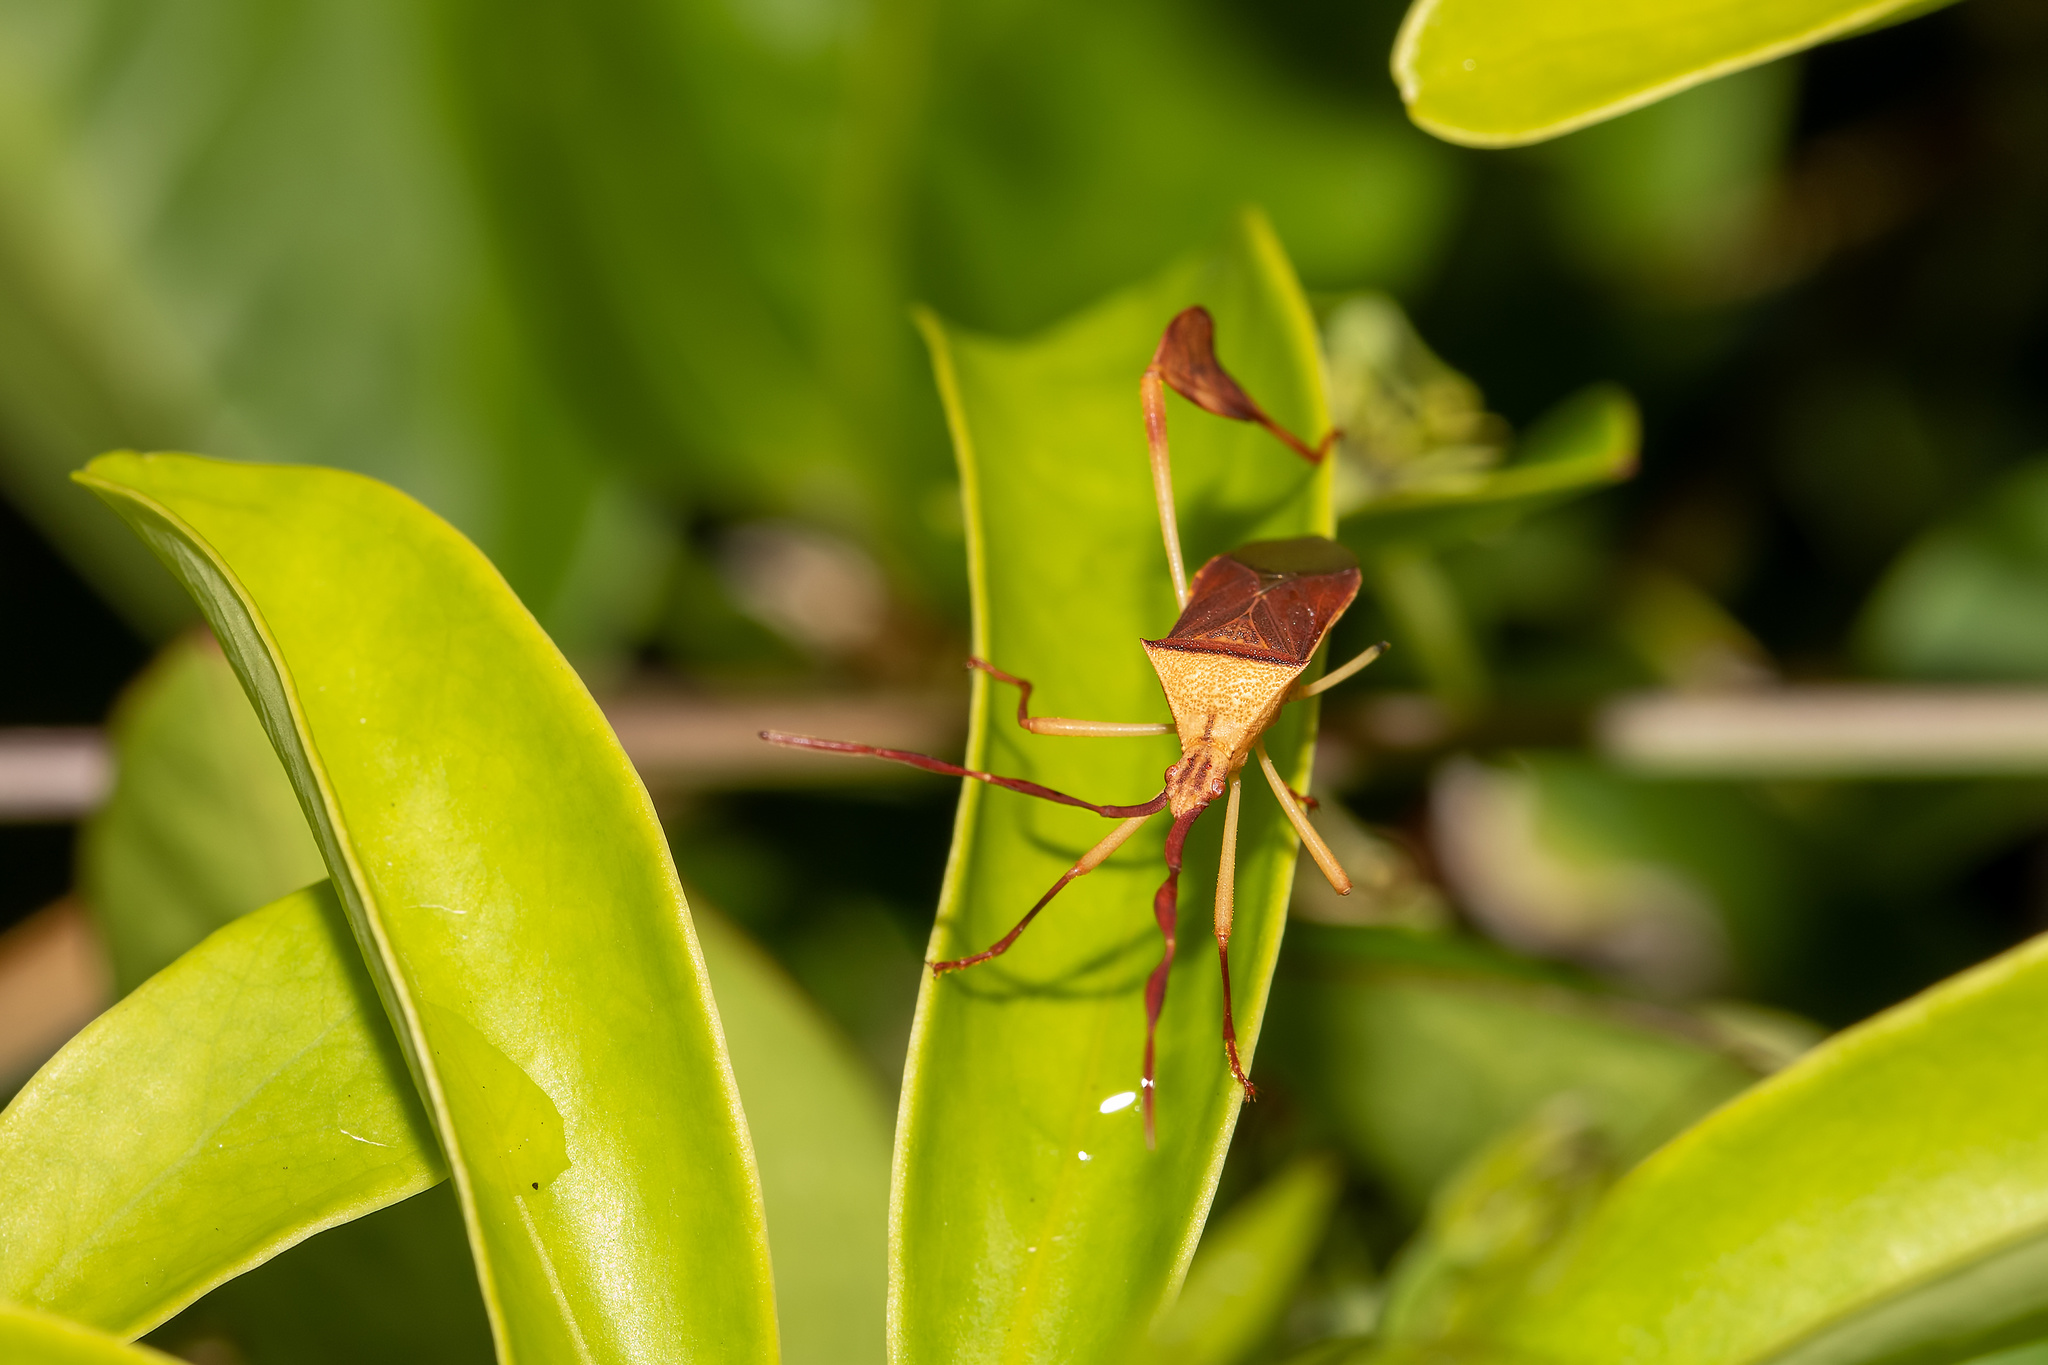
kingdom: Animalia
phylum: Arthropoda
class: Insecta
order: Hemiptera
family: Coreidae
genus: Chondrocera
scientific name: Chondrocera laticornis
